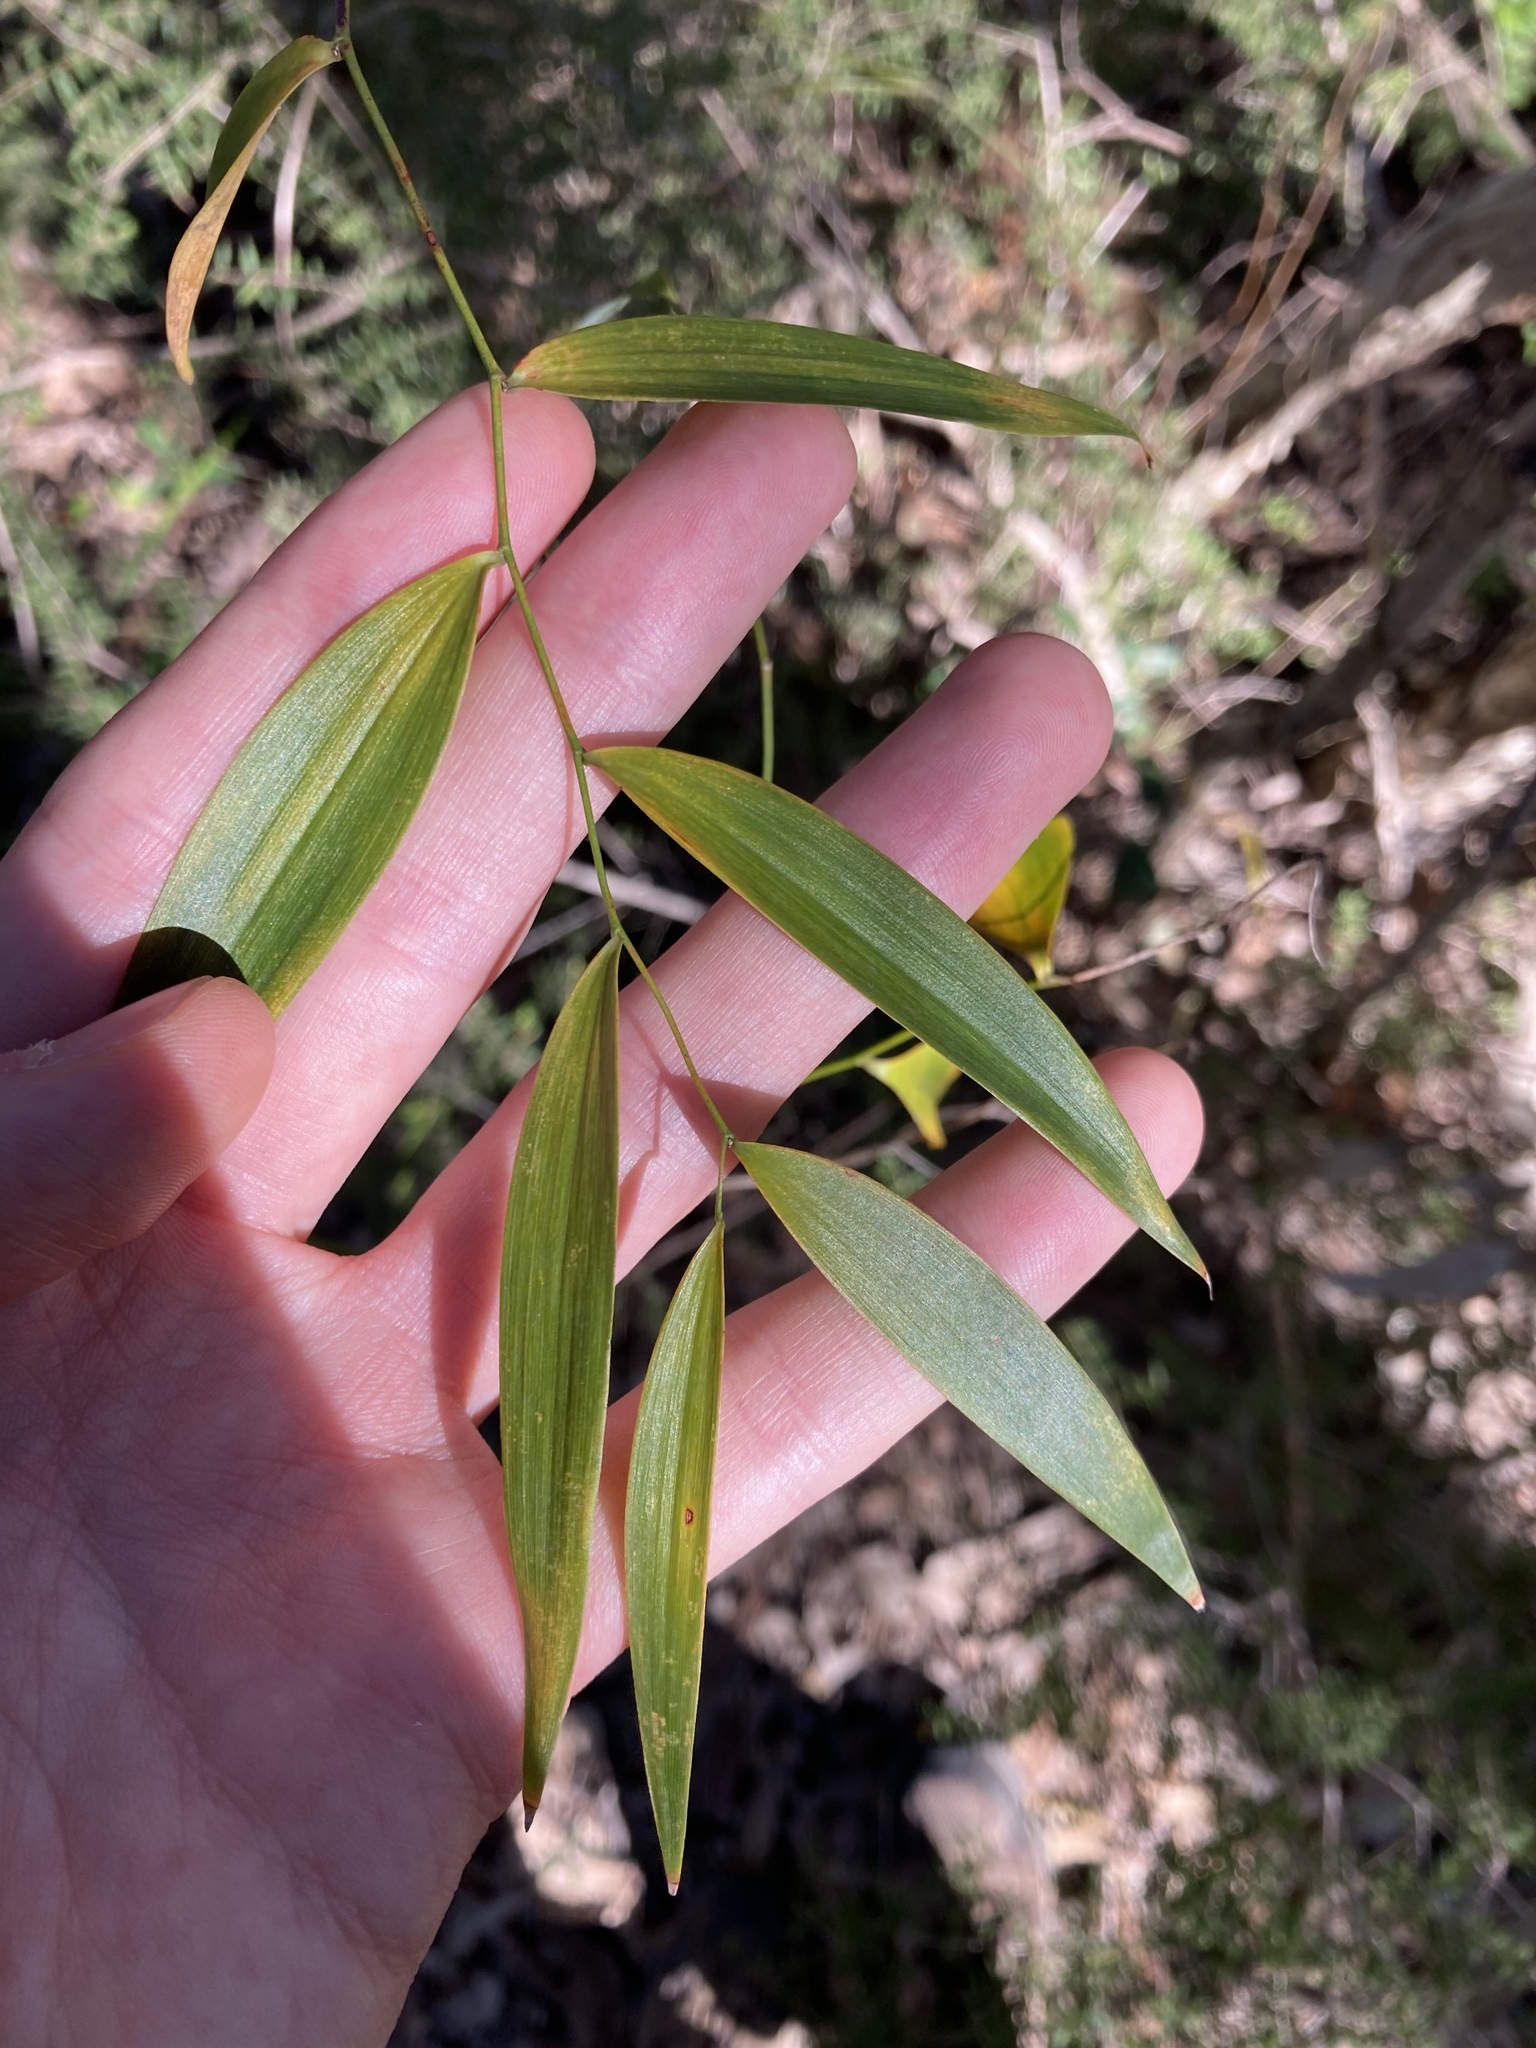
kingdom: Plantae
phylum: Tracheophyta
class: Liliopsida
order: Asparagales
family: Asparagaceae
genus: Eustrephus
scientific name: Eustrephus latifolius
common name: Orangevine
